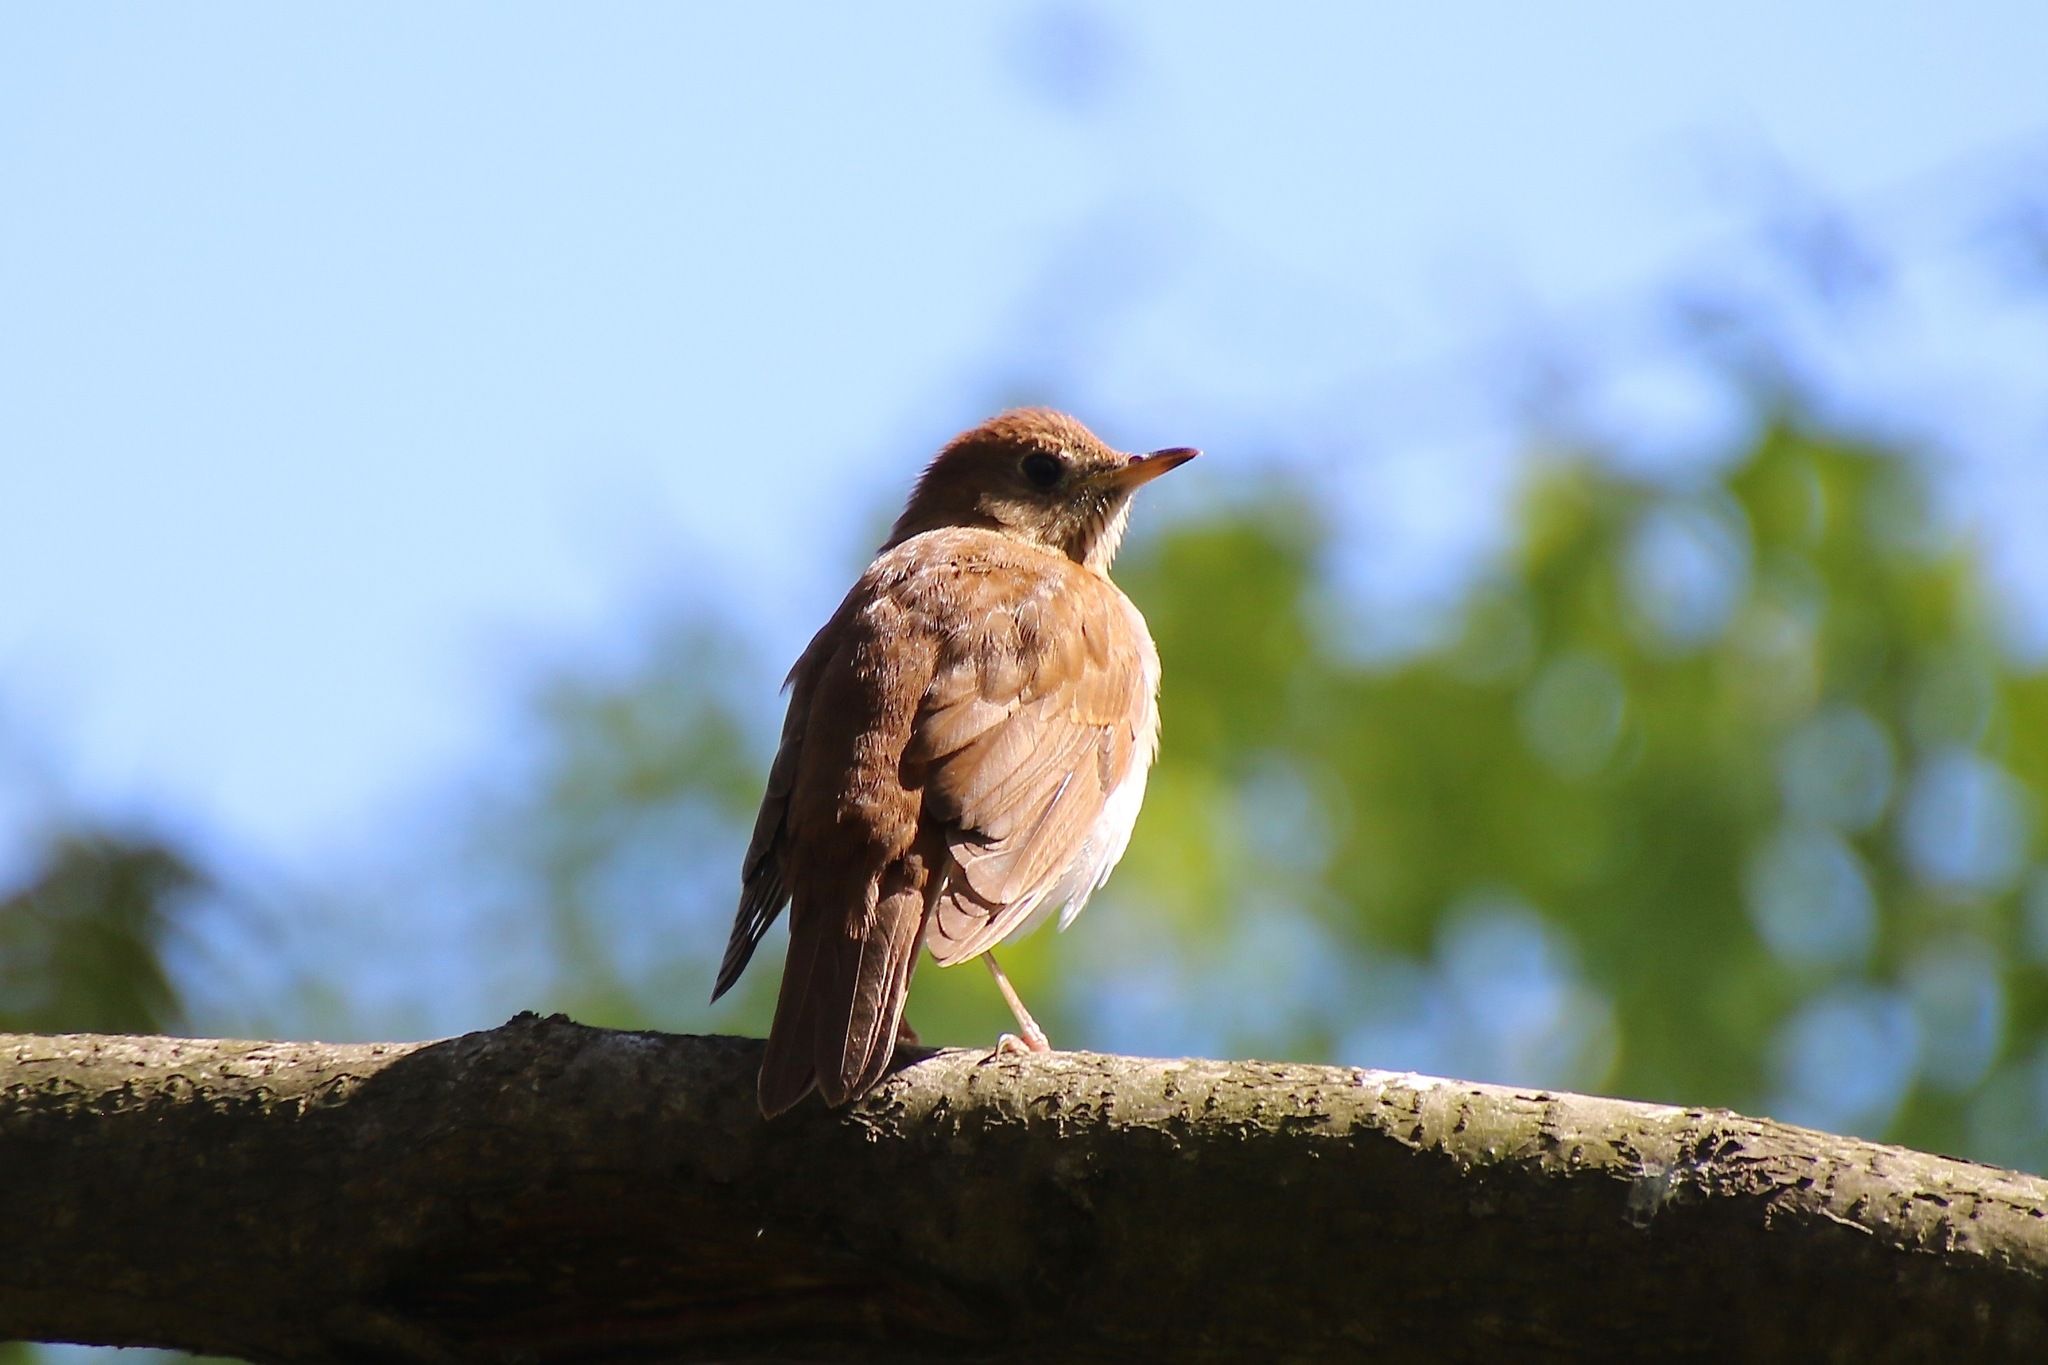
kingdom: Animalia
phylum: Chordata
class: Aves
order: Passeriformes
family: Turdidae
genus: Catharus
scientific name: Catharus fuscescens
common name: Veery
